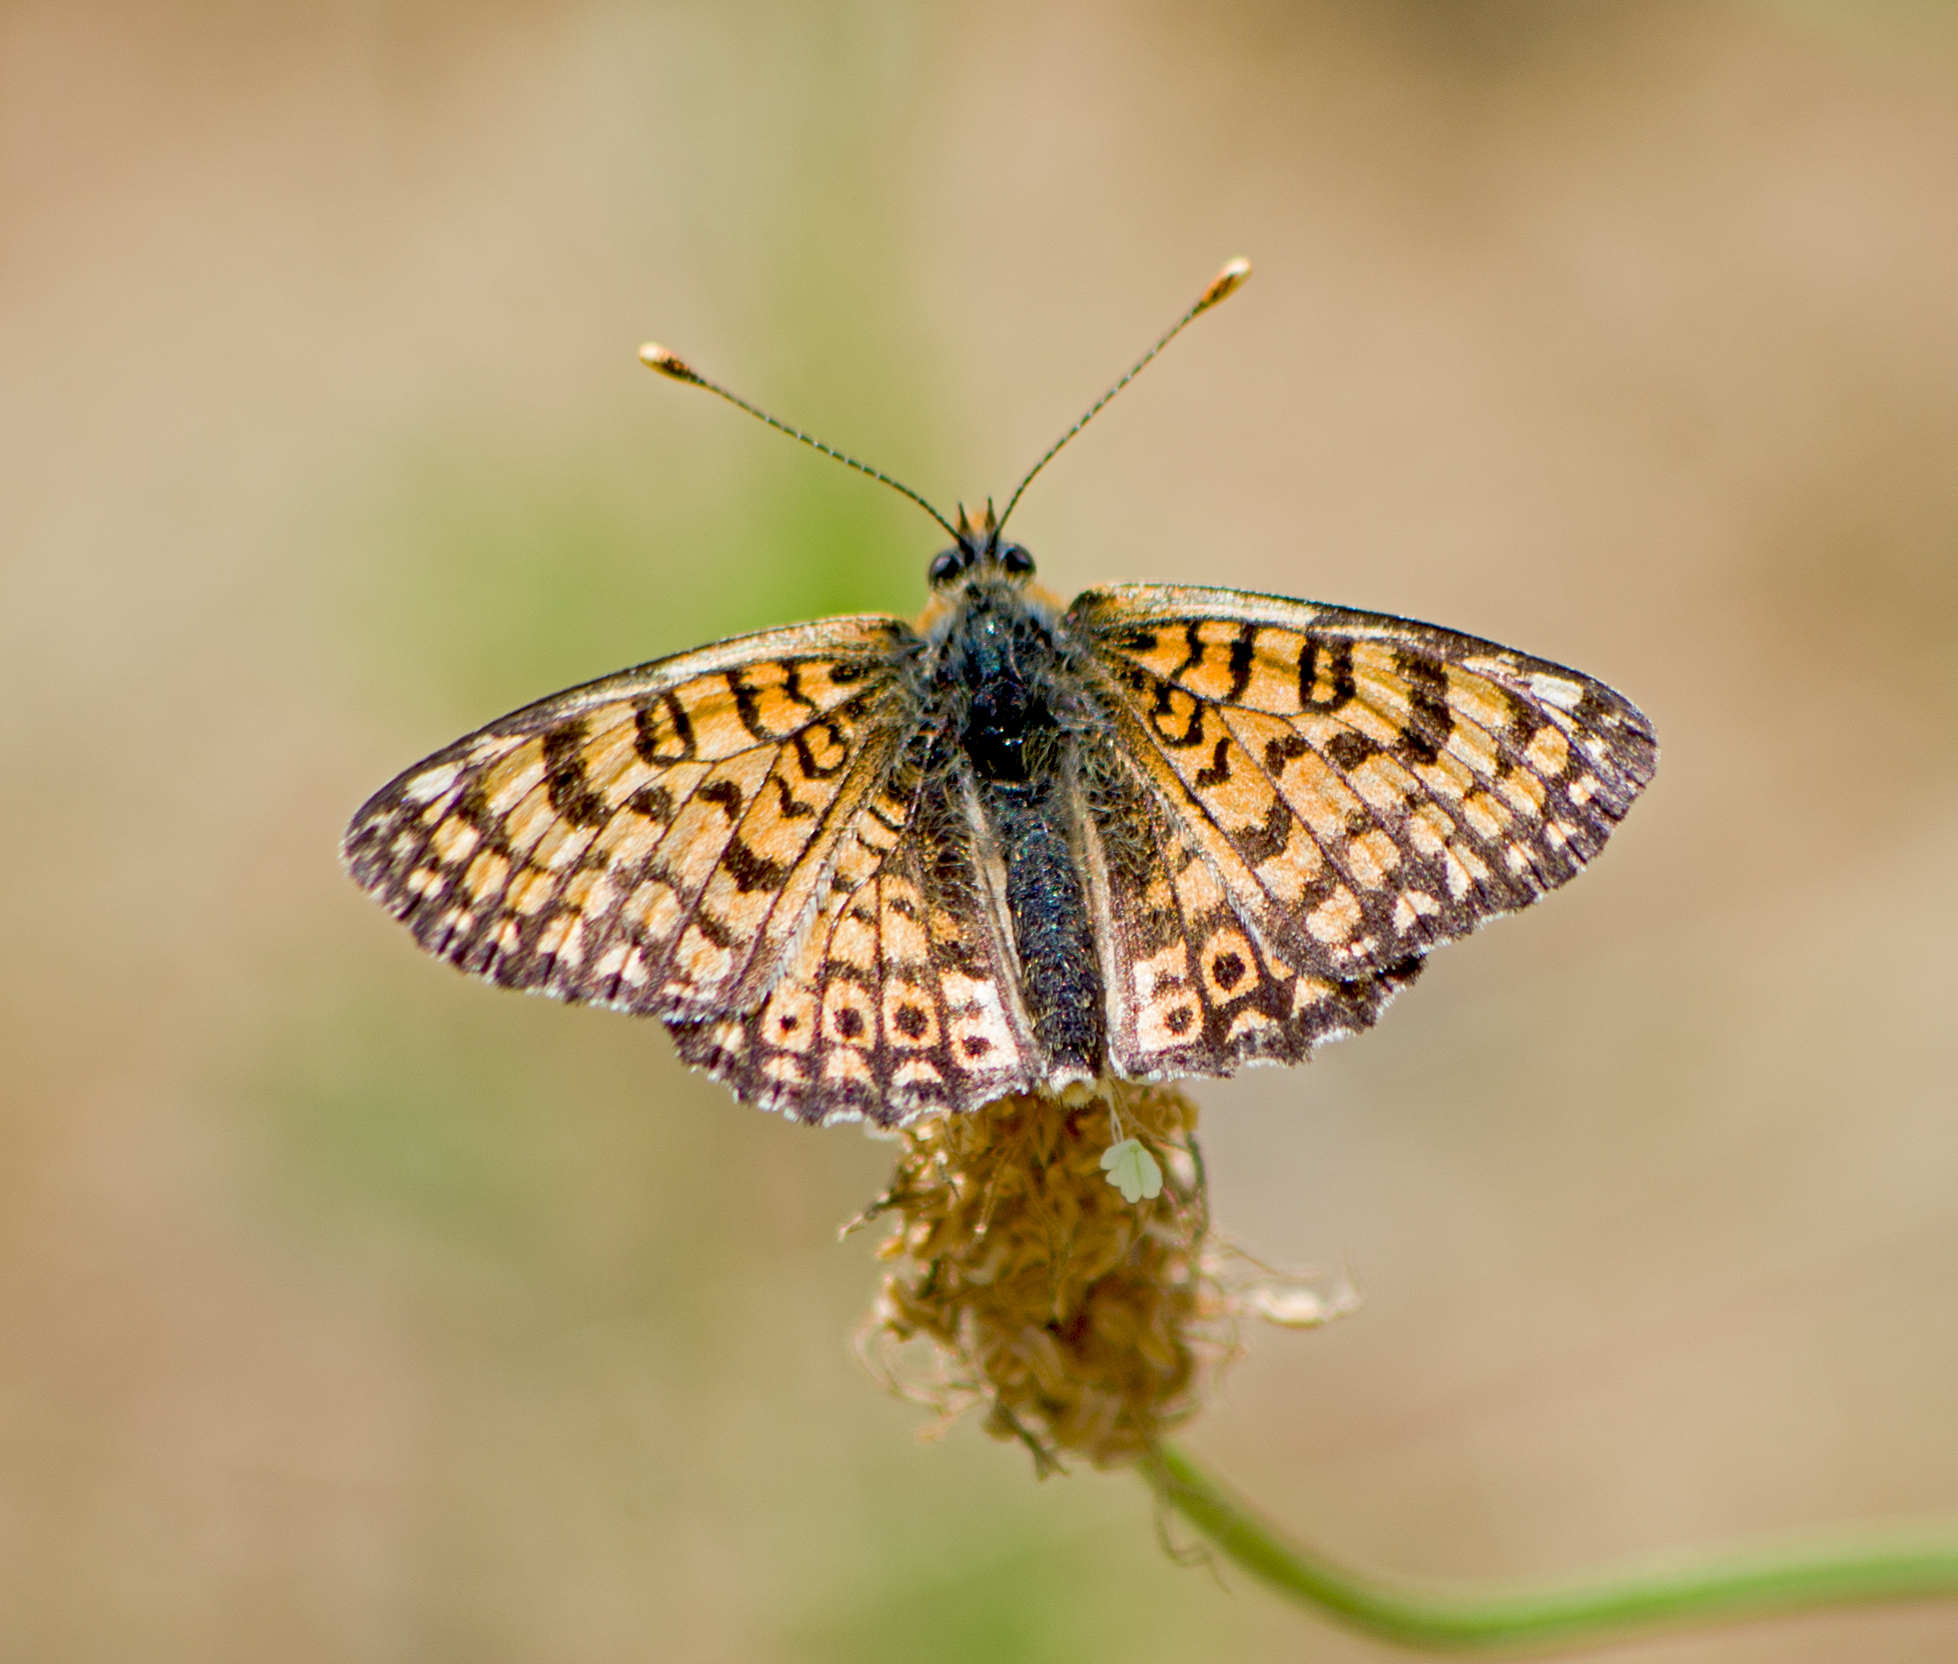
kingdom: Animalia
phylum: Arthropoda
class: Insecta
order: Lepidoptera
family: Nymphalidae
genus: Melitaea
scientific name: Melitaea cinxia
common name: Glanville fritillary
